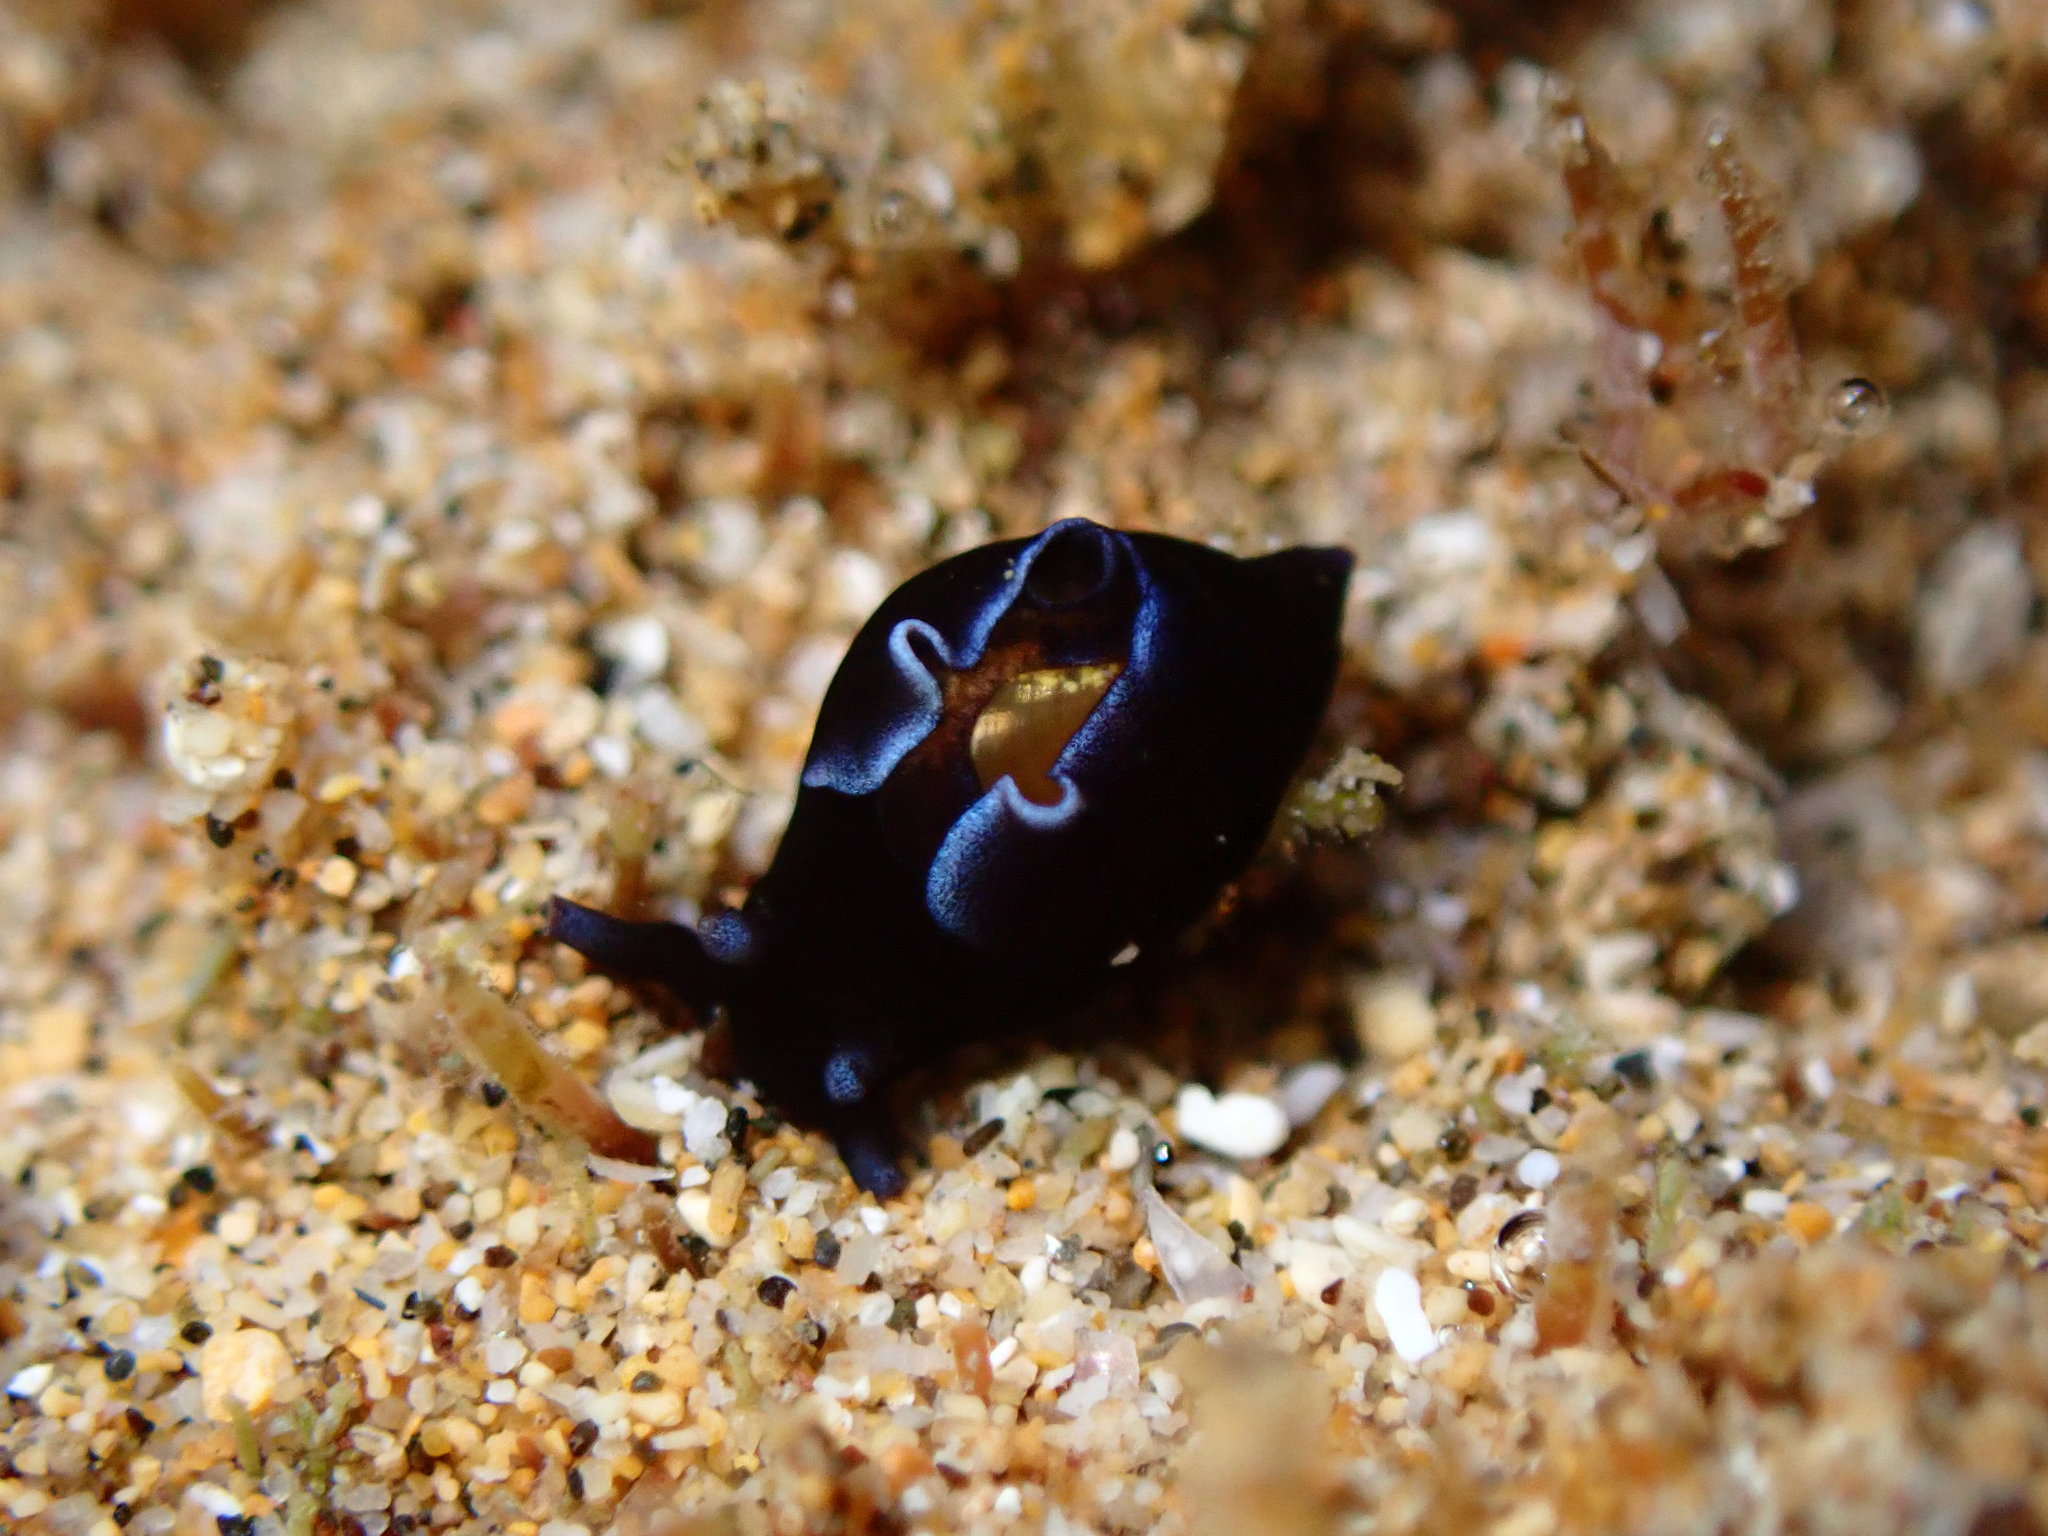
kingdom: Animalia
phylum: Mollusca
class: Gastropoda
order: Aplysiida
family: Aplysiidae
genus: Aplysia
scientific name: Aplysia elongata
